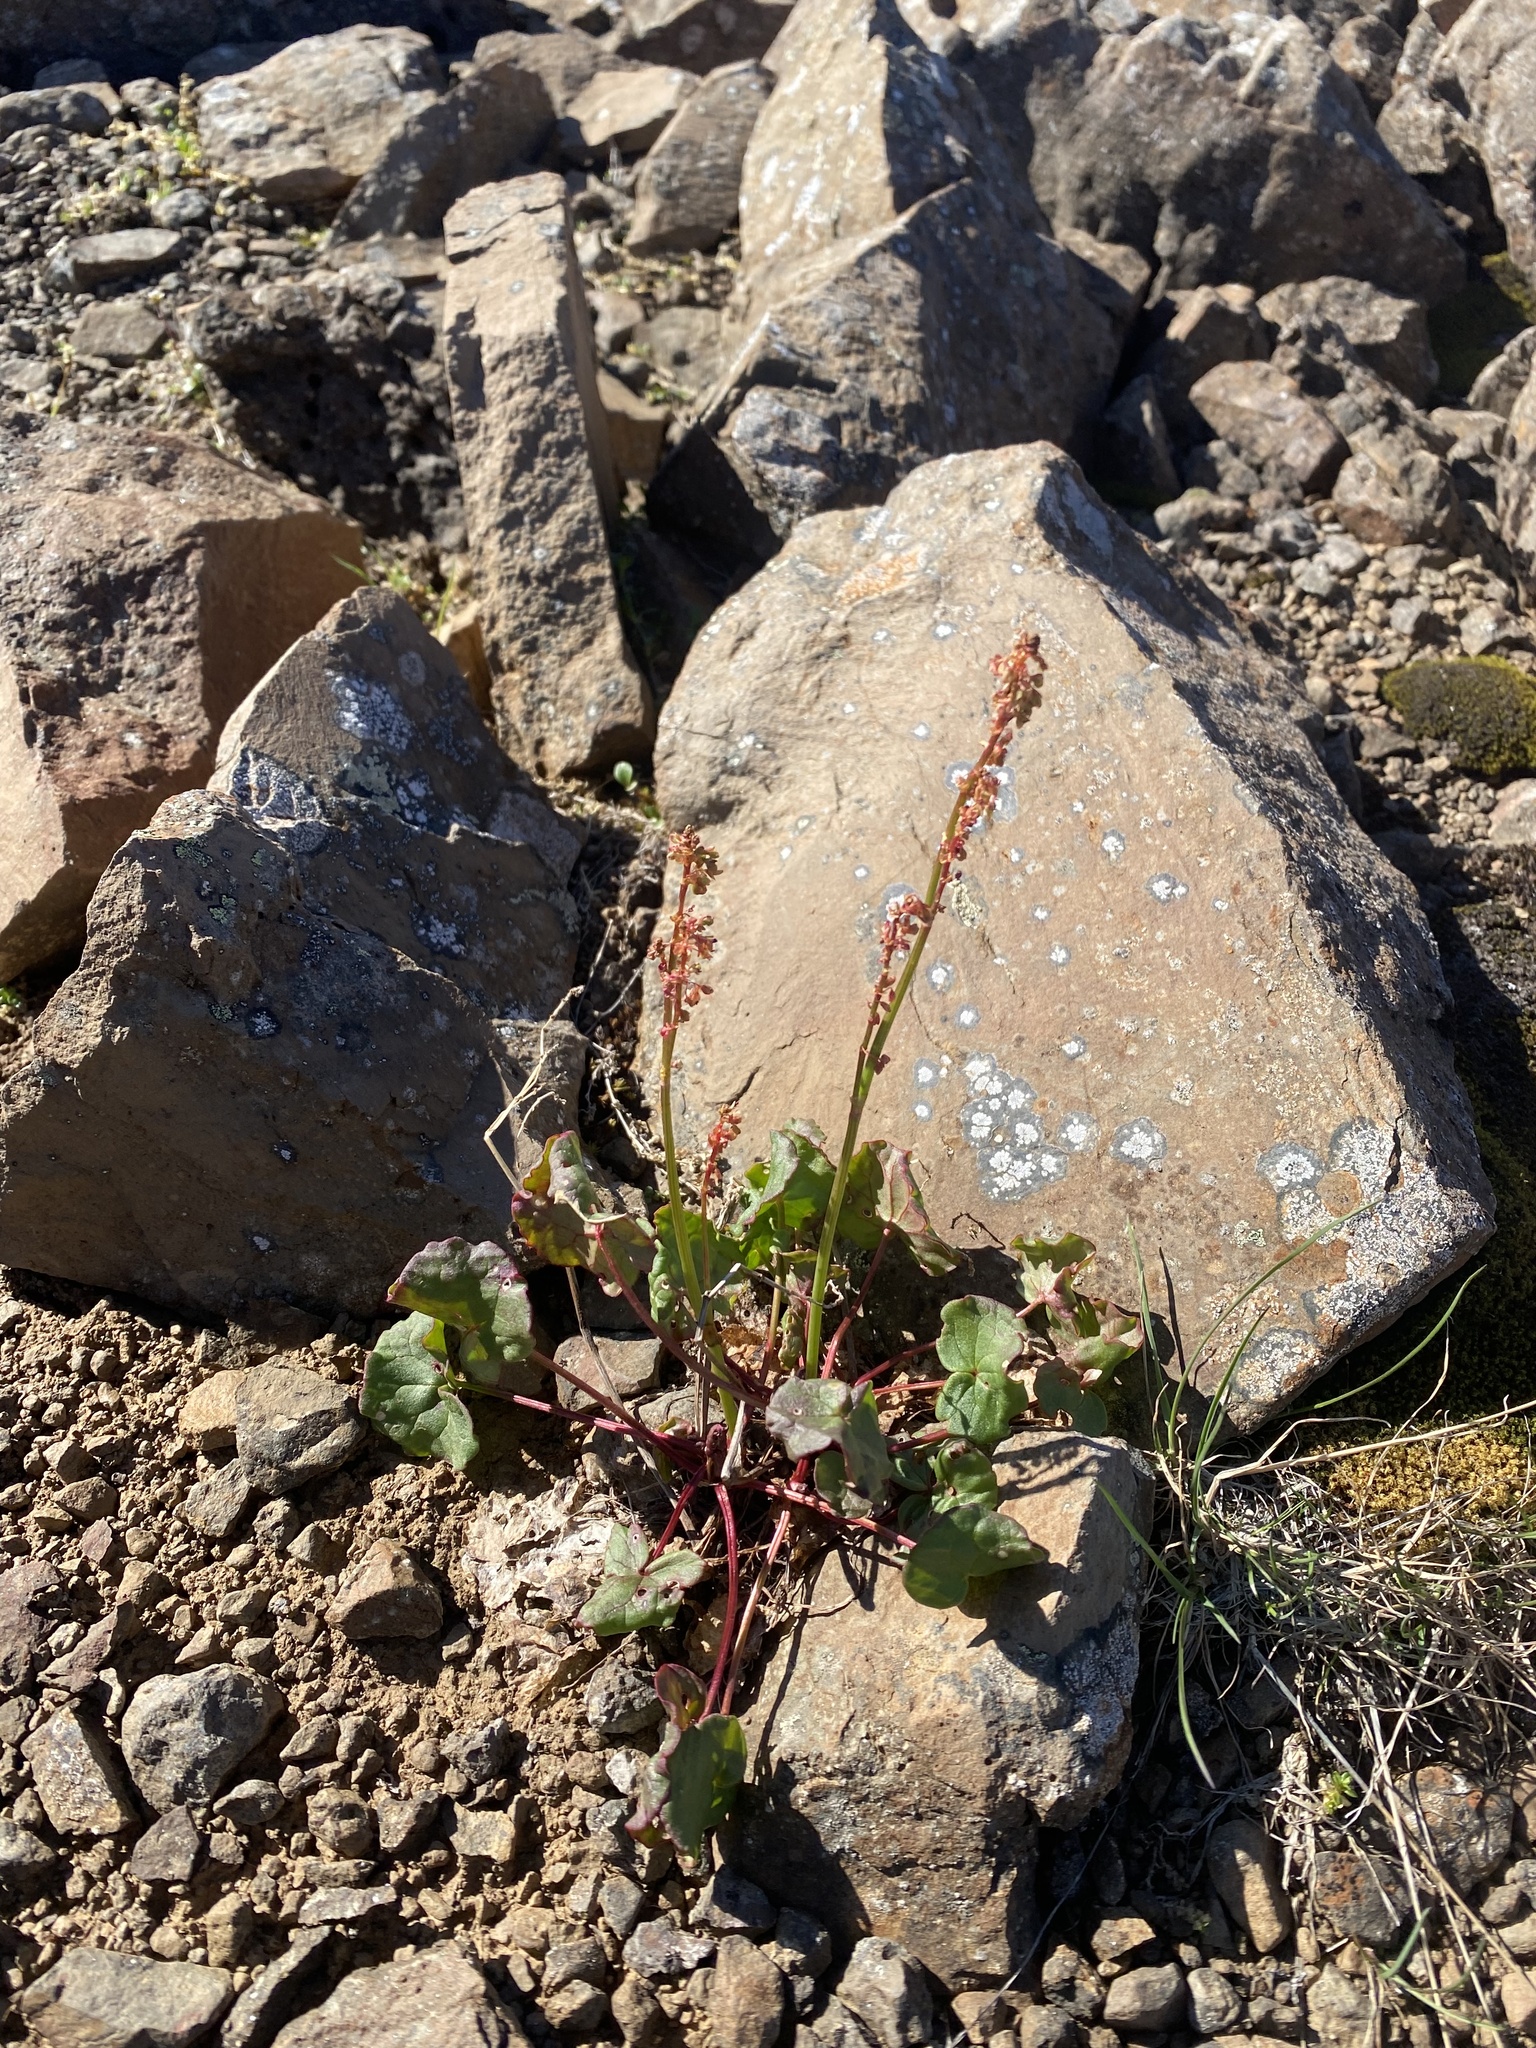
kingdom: Plantae
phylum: Tracheophyta
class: Magnoliopsida
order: Caryophyllales
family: Polygonaceae
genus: Oxyria
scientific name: Oxyria digyna
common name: Alpine mountain-sorrel
